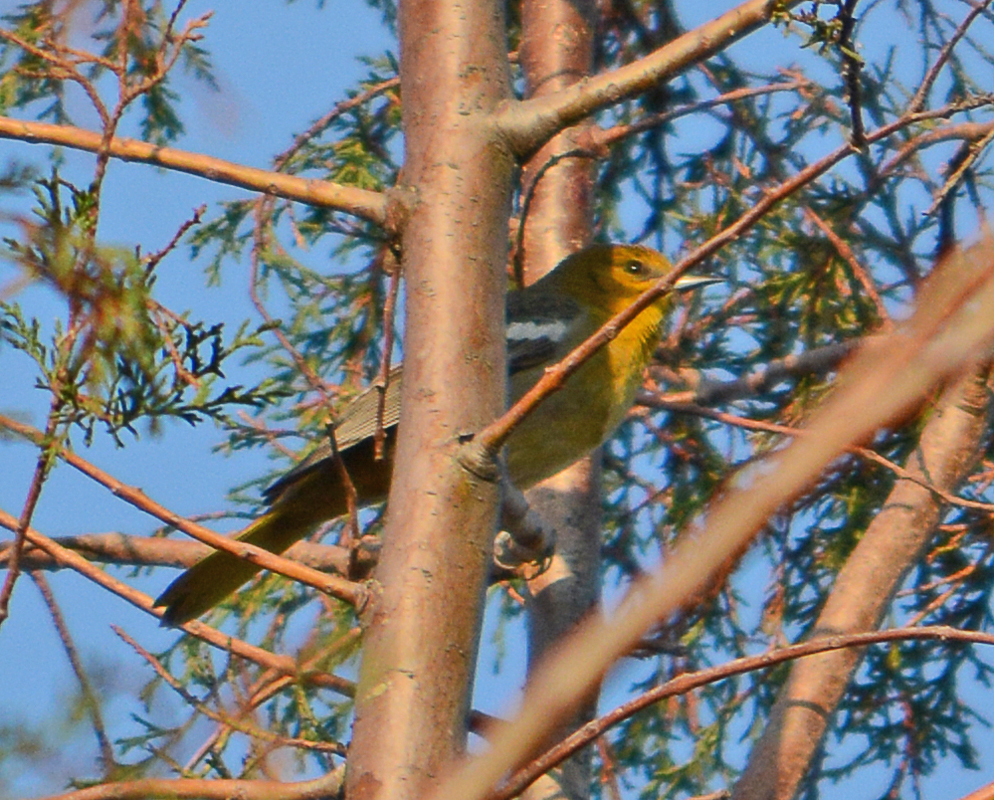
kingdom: Animalia
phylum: Chordata
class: Aves
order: Passeriformes
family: Icteridae
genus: Icterus
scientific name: Icterus abeillei
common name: Black-backed oriole
